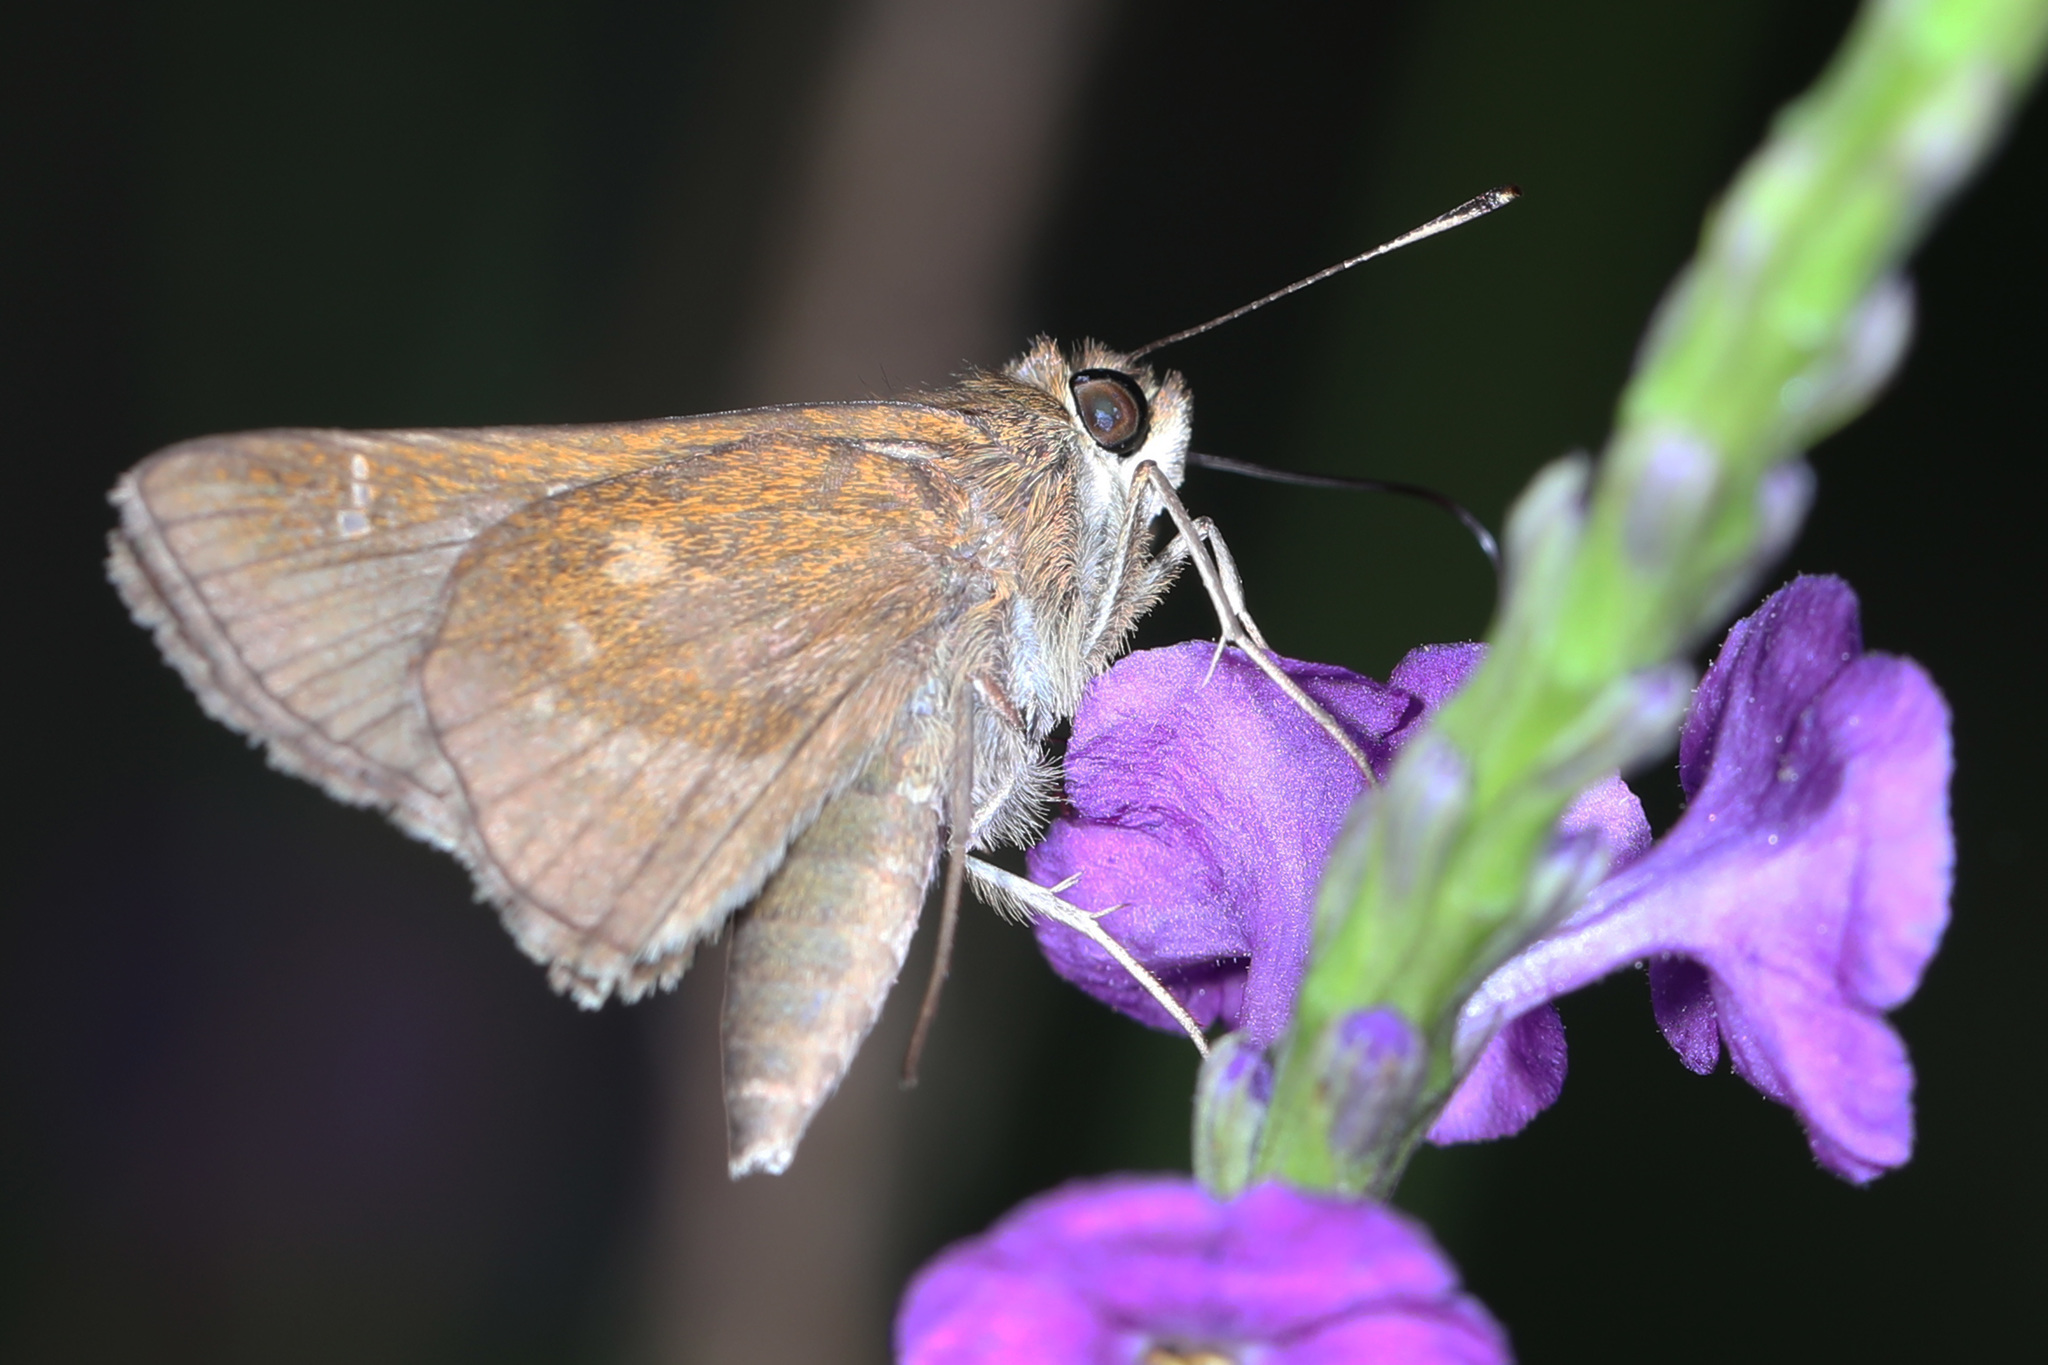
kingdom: Animalia
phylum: Arthropoda
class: Insecta
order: Lepidoptera
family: Hesperiidae
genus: Lerema
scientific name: Lerema accius
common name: Clouded skipper
